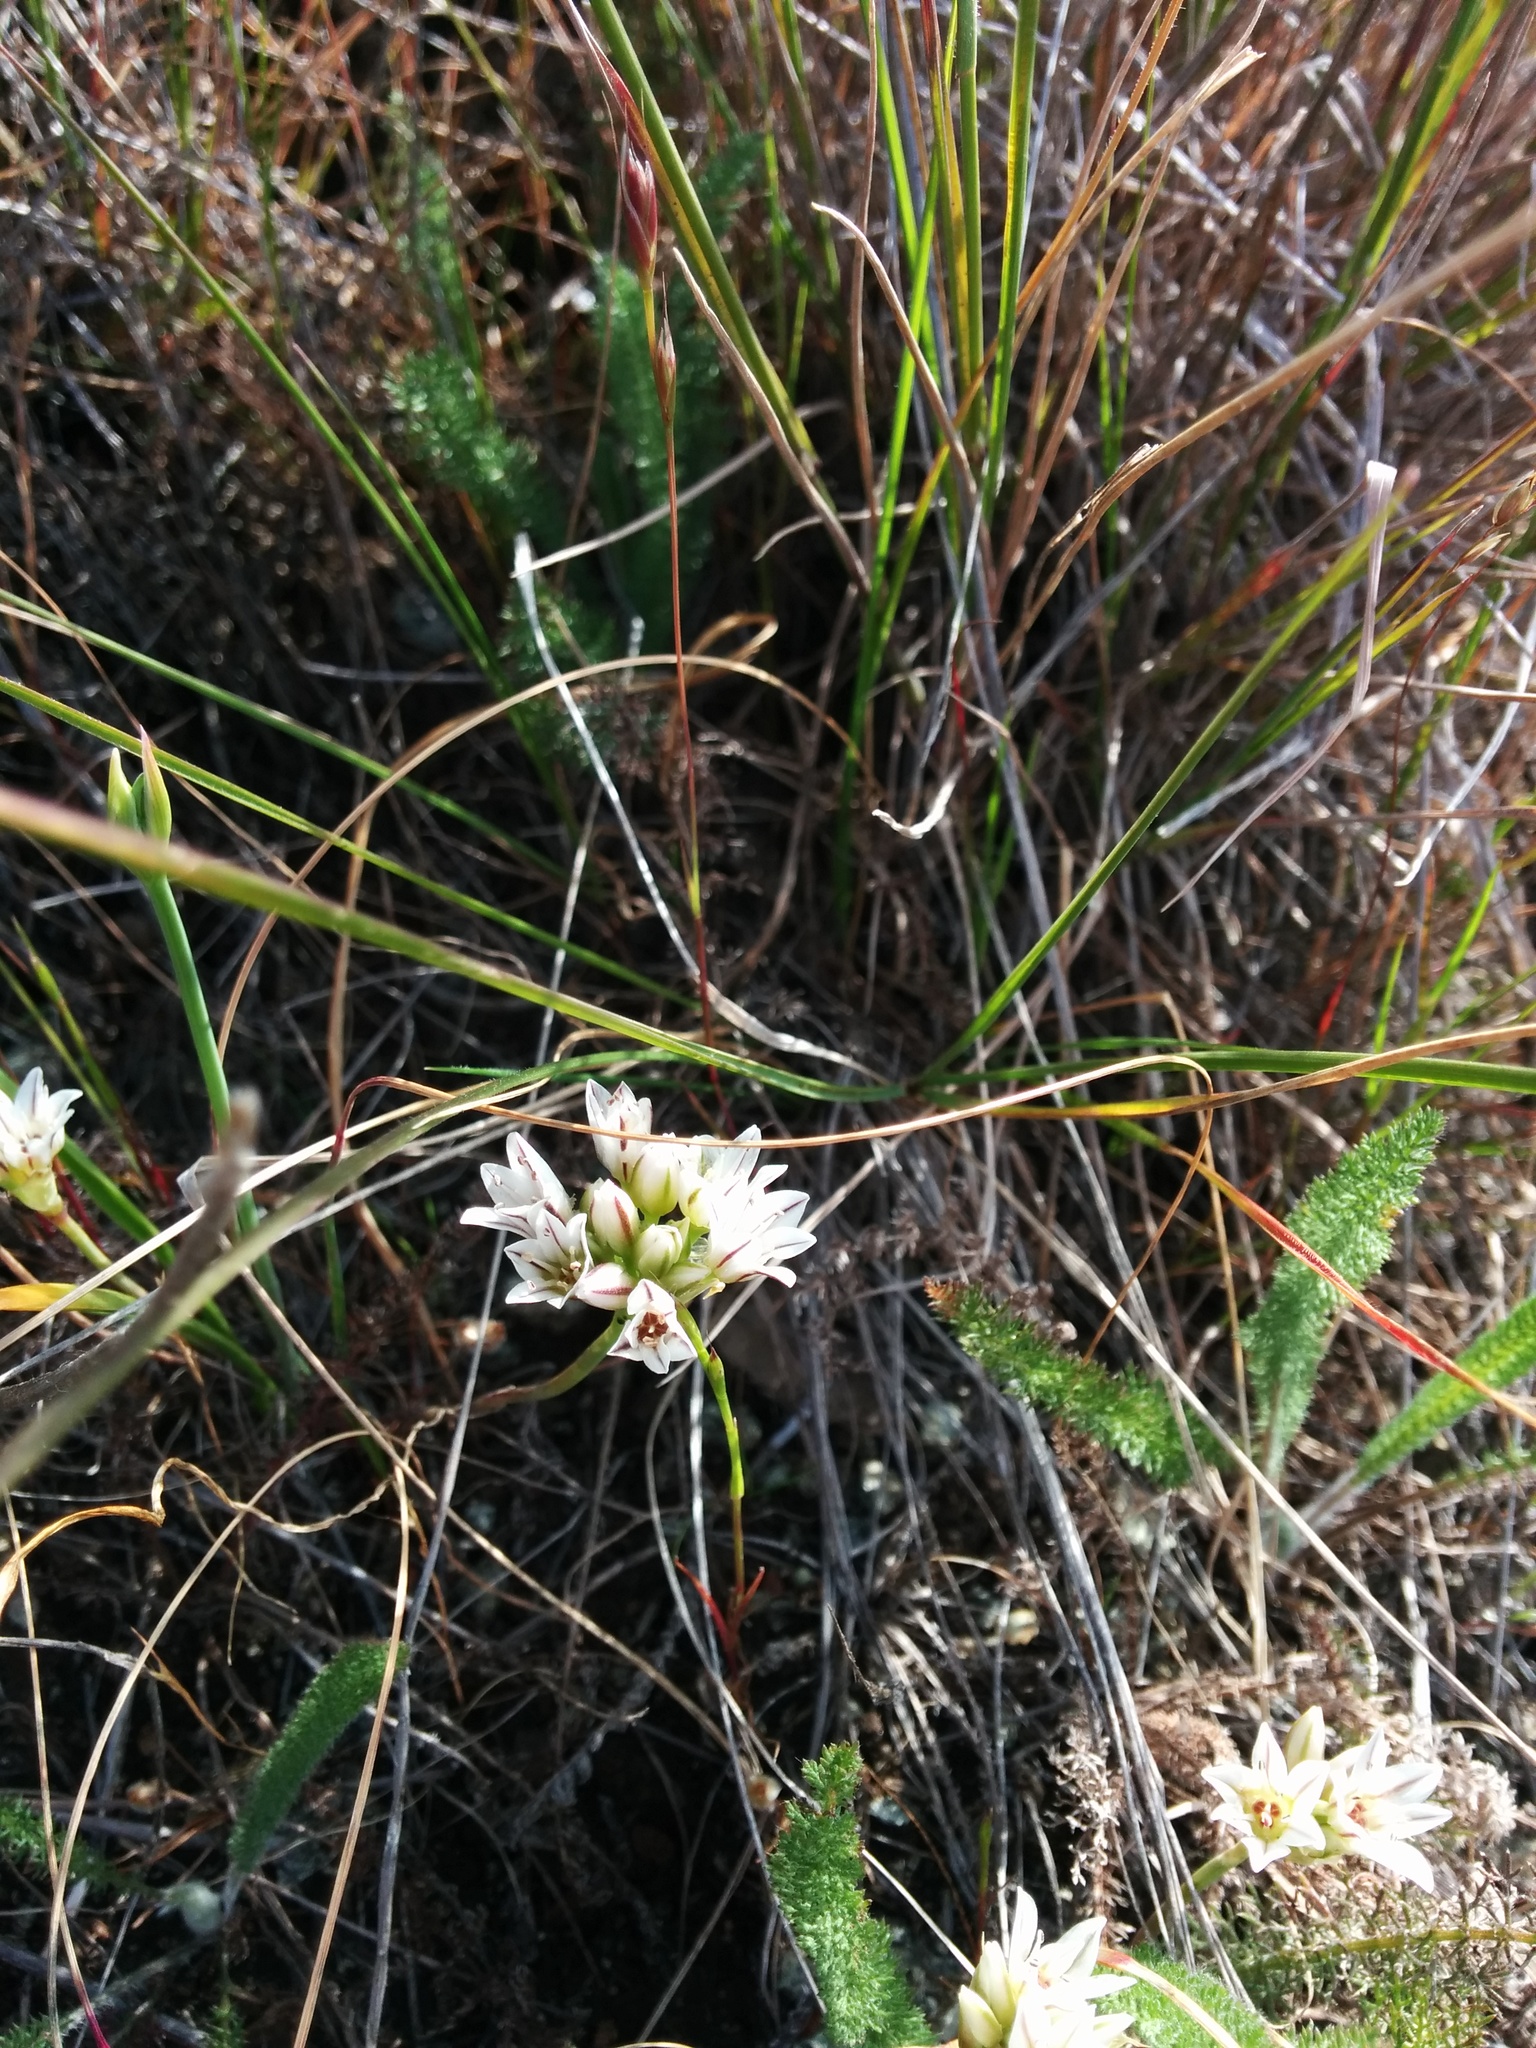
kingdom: Plantae
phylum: Tracheophyta
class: Liliopsida
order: Asparagales
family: Amaryllidaceae
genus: Allium
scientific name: Allium lacunosum
